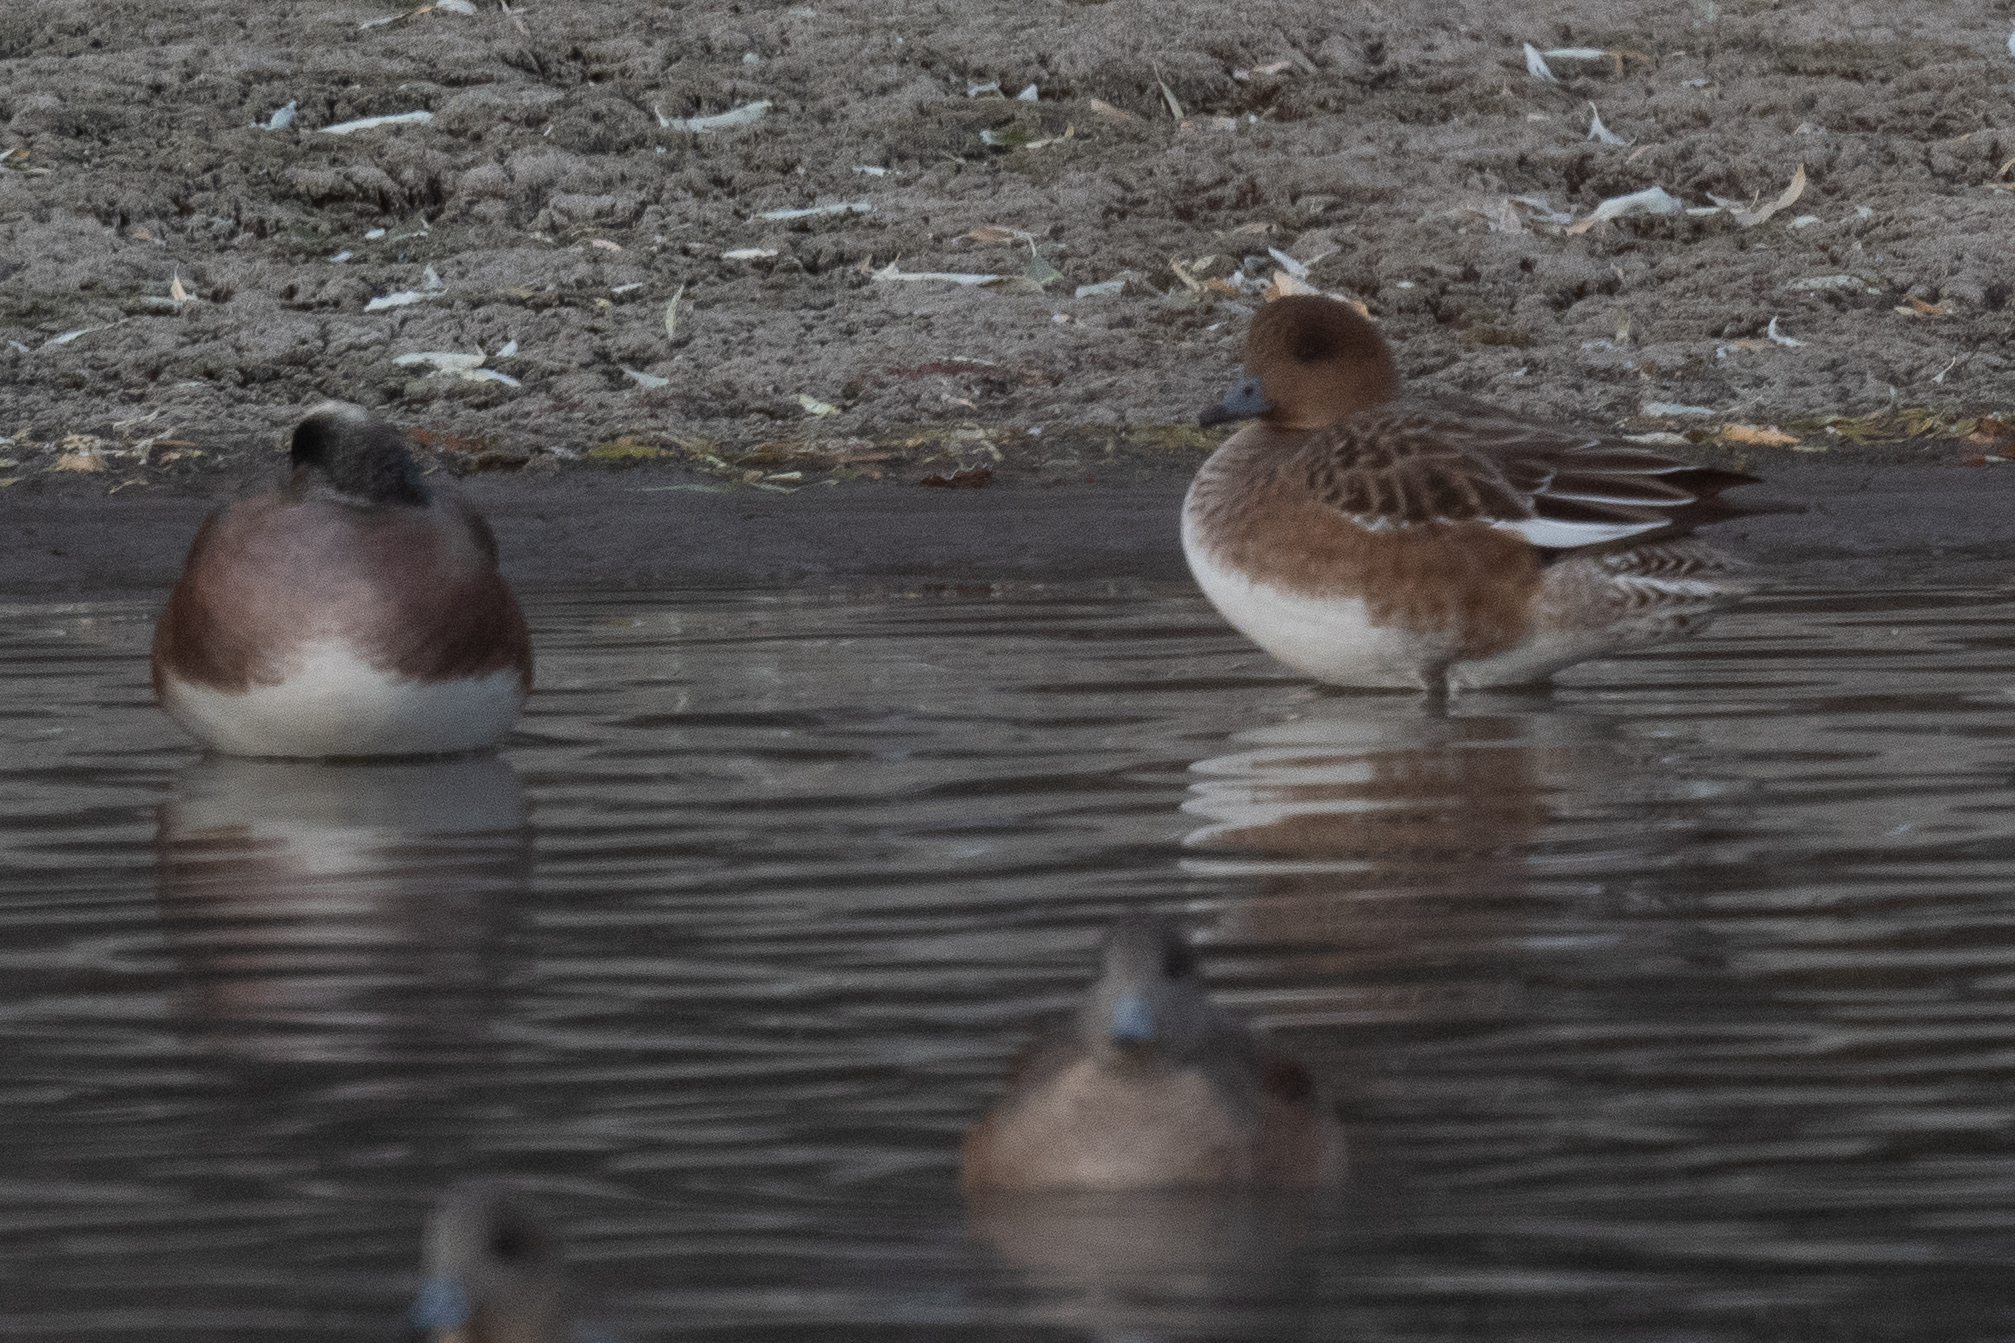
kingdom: Animalia
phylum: Chordata
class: Aves
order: Anseriformes
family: Anatidae
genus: Mareca
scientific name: Mareca penelope
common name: Eurasian wigeon
